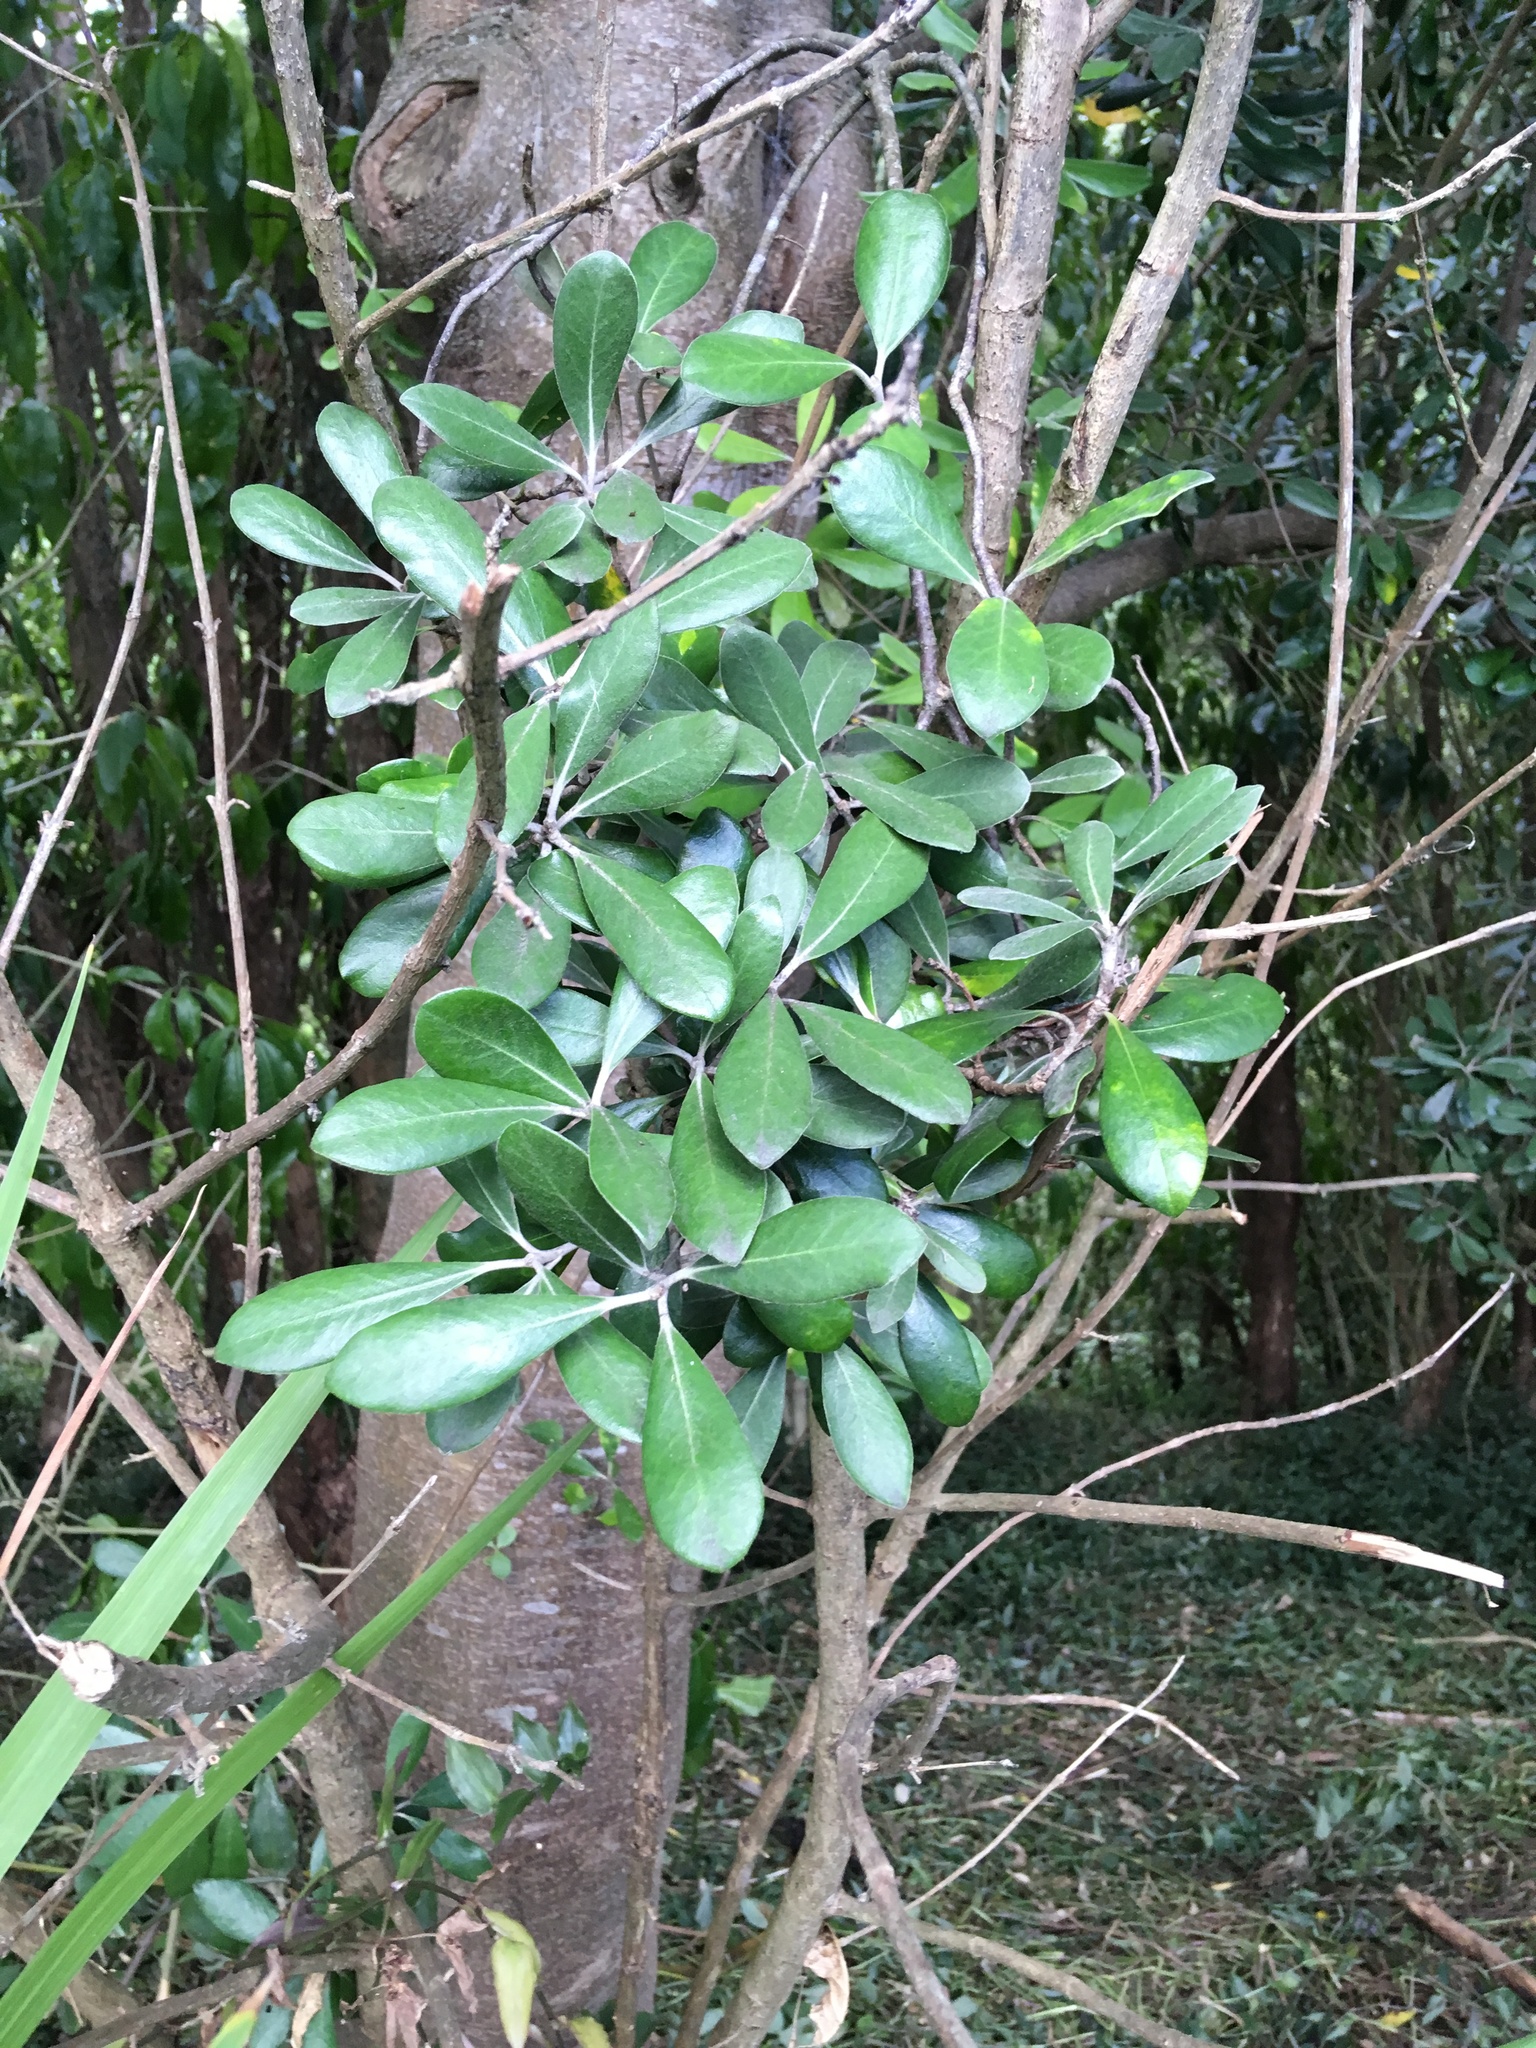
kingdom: Plantae
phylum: Tracheophyta
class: Magnoliopsida
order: Apiales
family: Pittosporaceae
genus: Pittosporum
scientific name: Pittosporum crassifolium
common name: Karo
